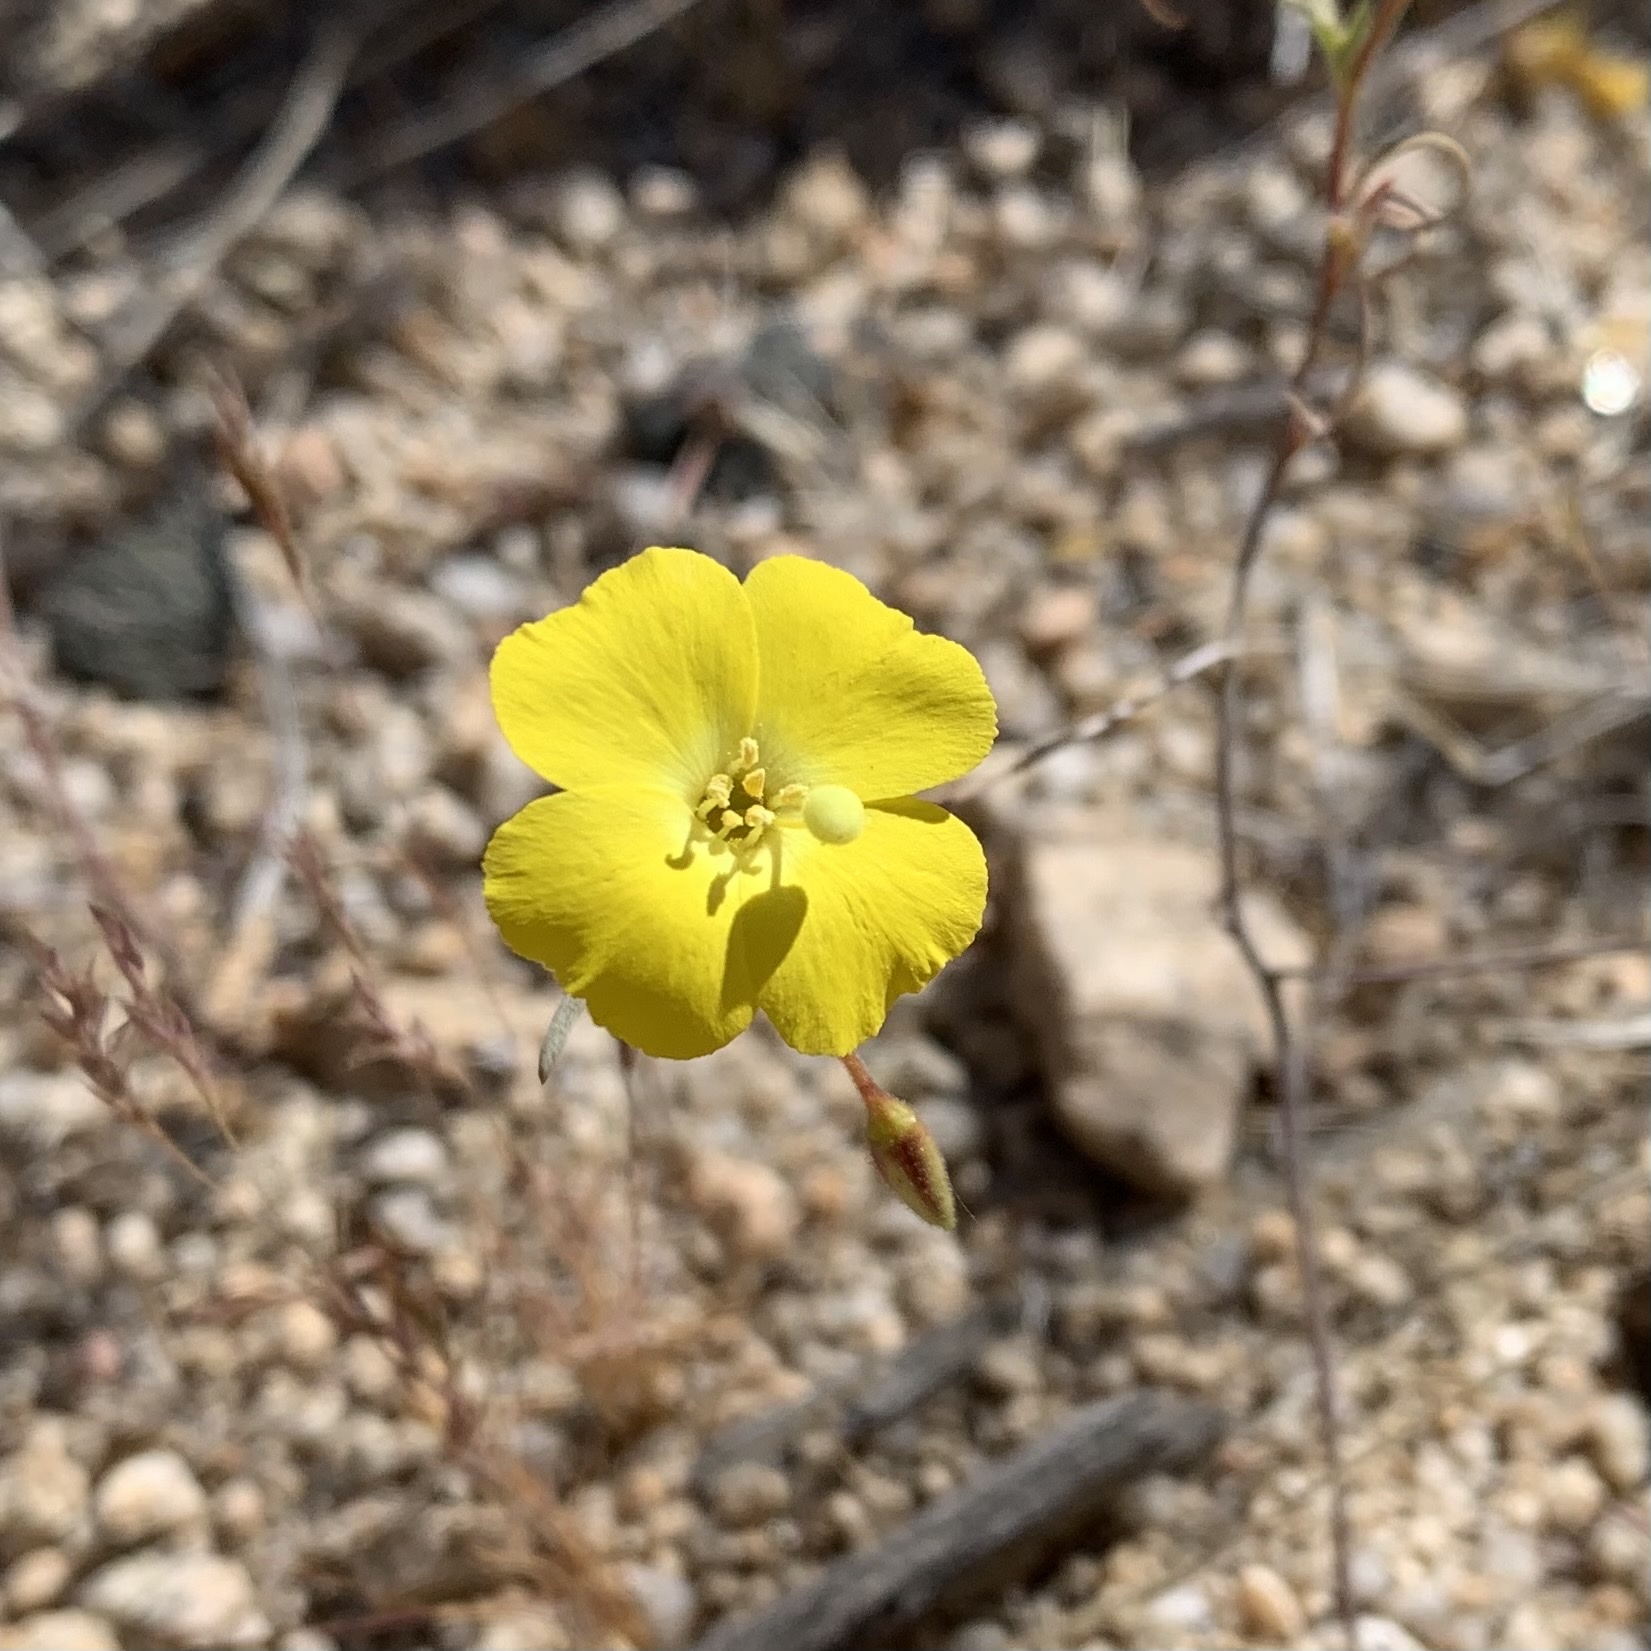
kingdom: Plantae
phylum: Tracheophyta
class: Magnoliopsida
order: Myrtales
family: Onagraceae
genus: Camissonia
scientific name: Camissonia campestris
